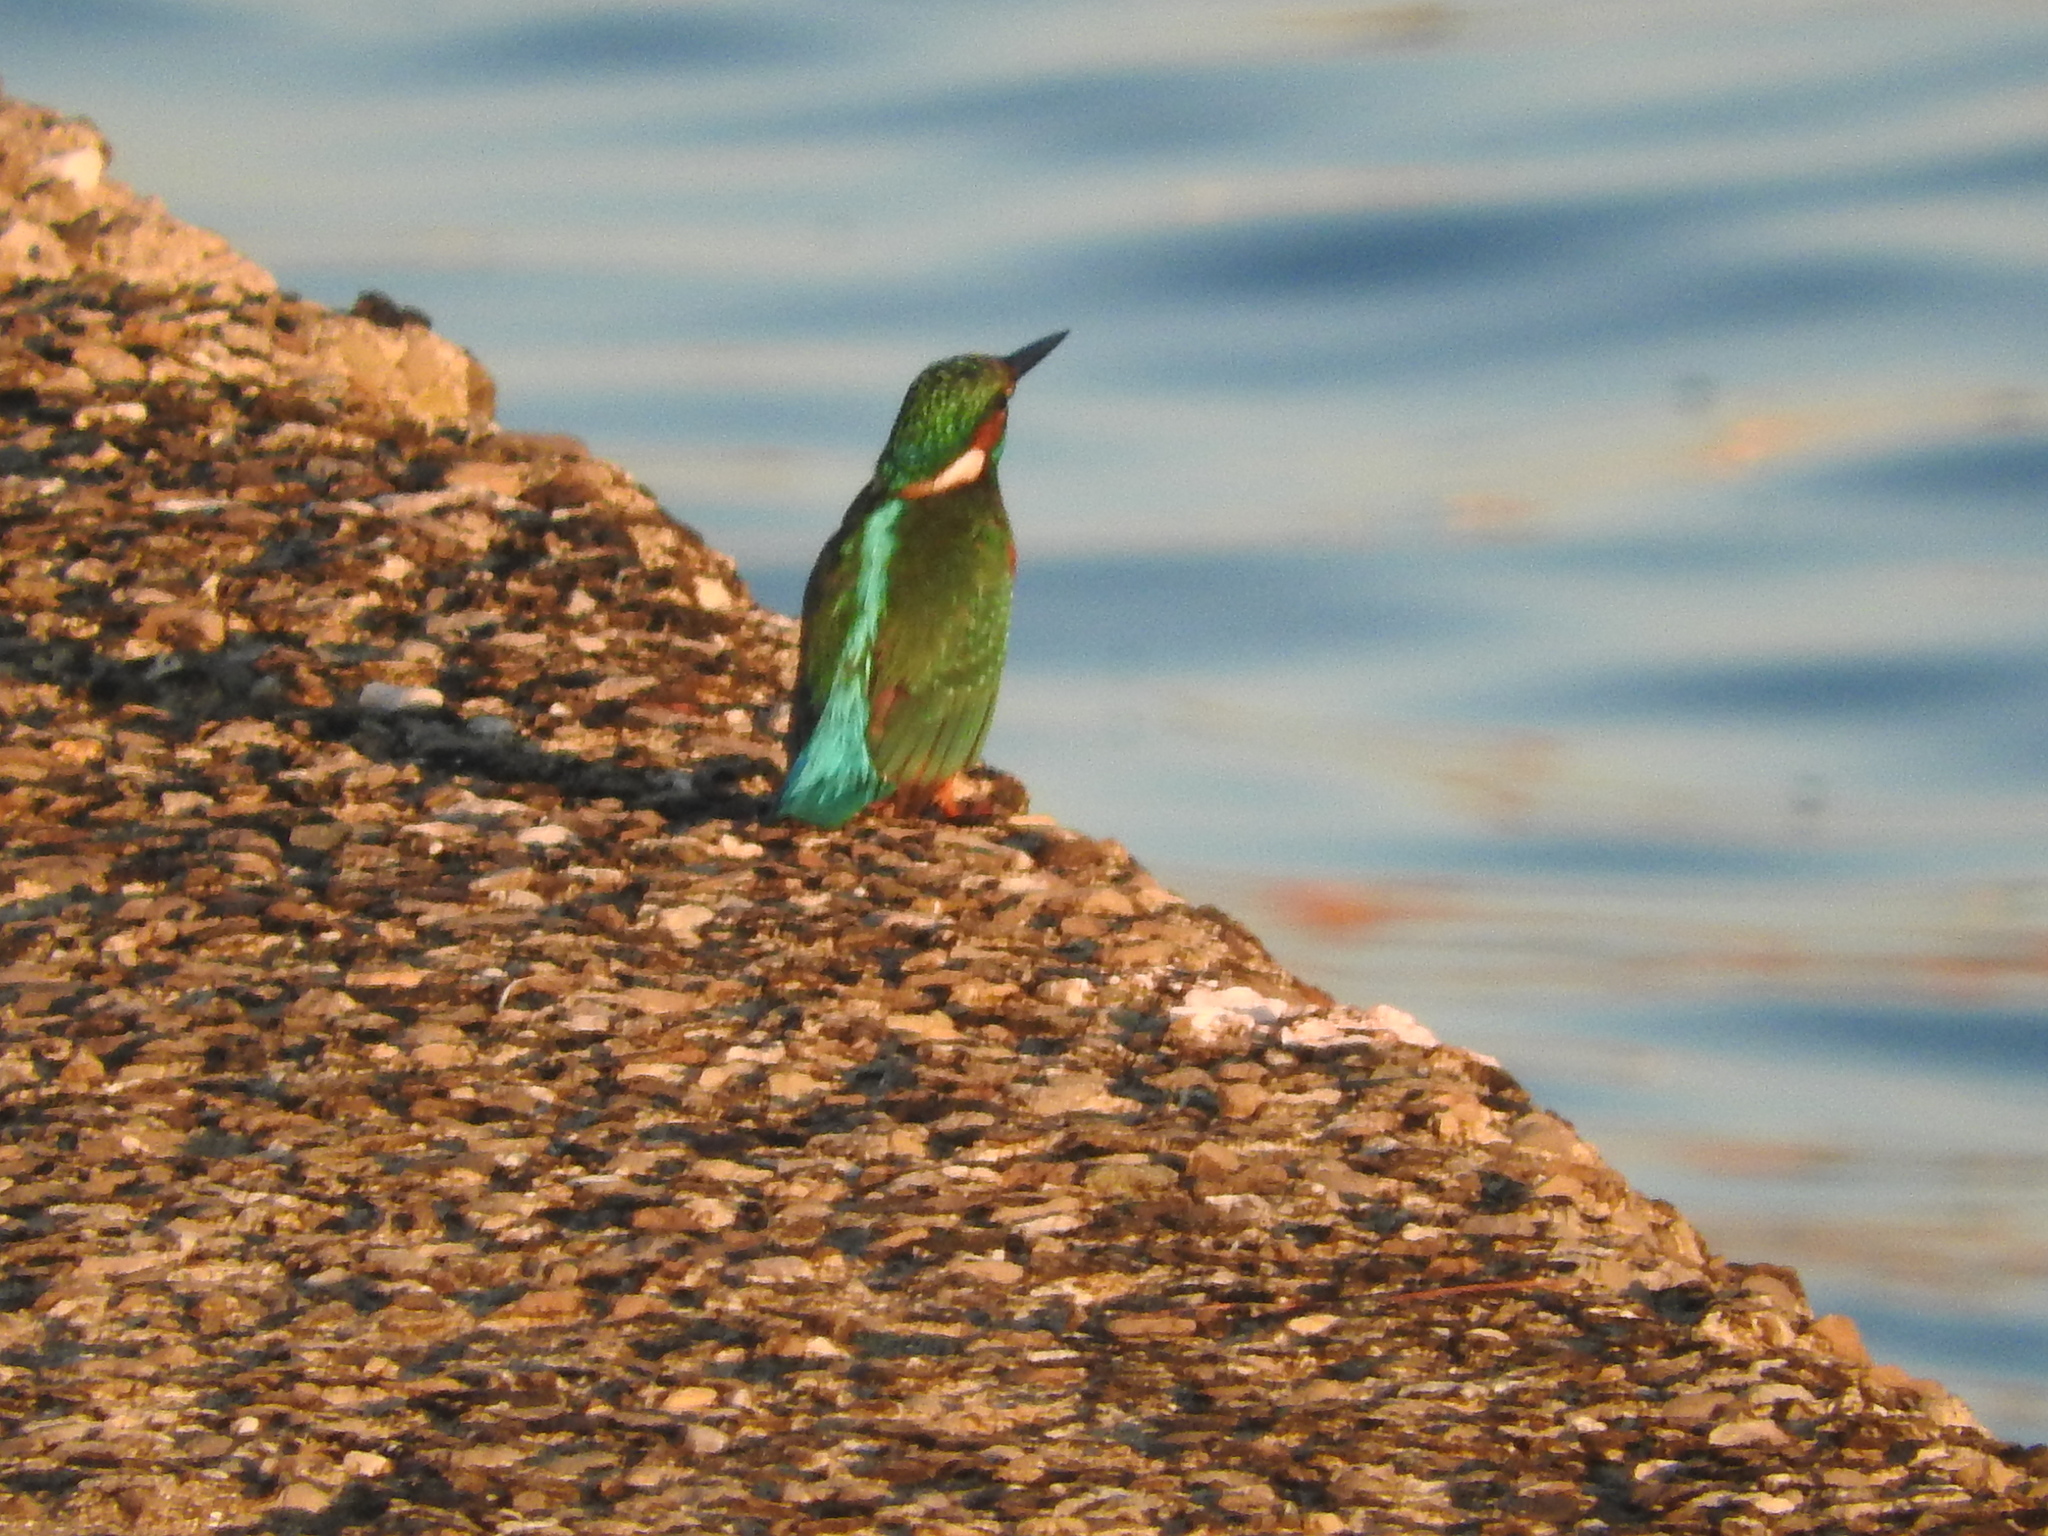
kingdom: Animalia
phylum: Chordata
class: Aves
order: Coraciiformes
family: Alcedinidae
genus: Alcedo
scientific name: Alcedo atthis
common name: Common kingfisher
